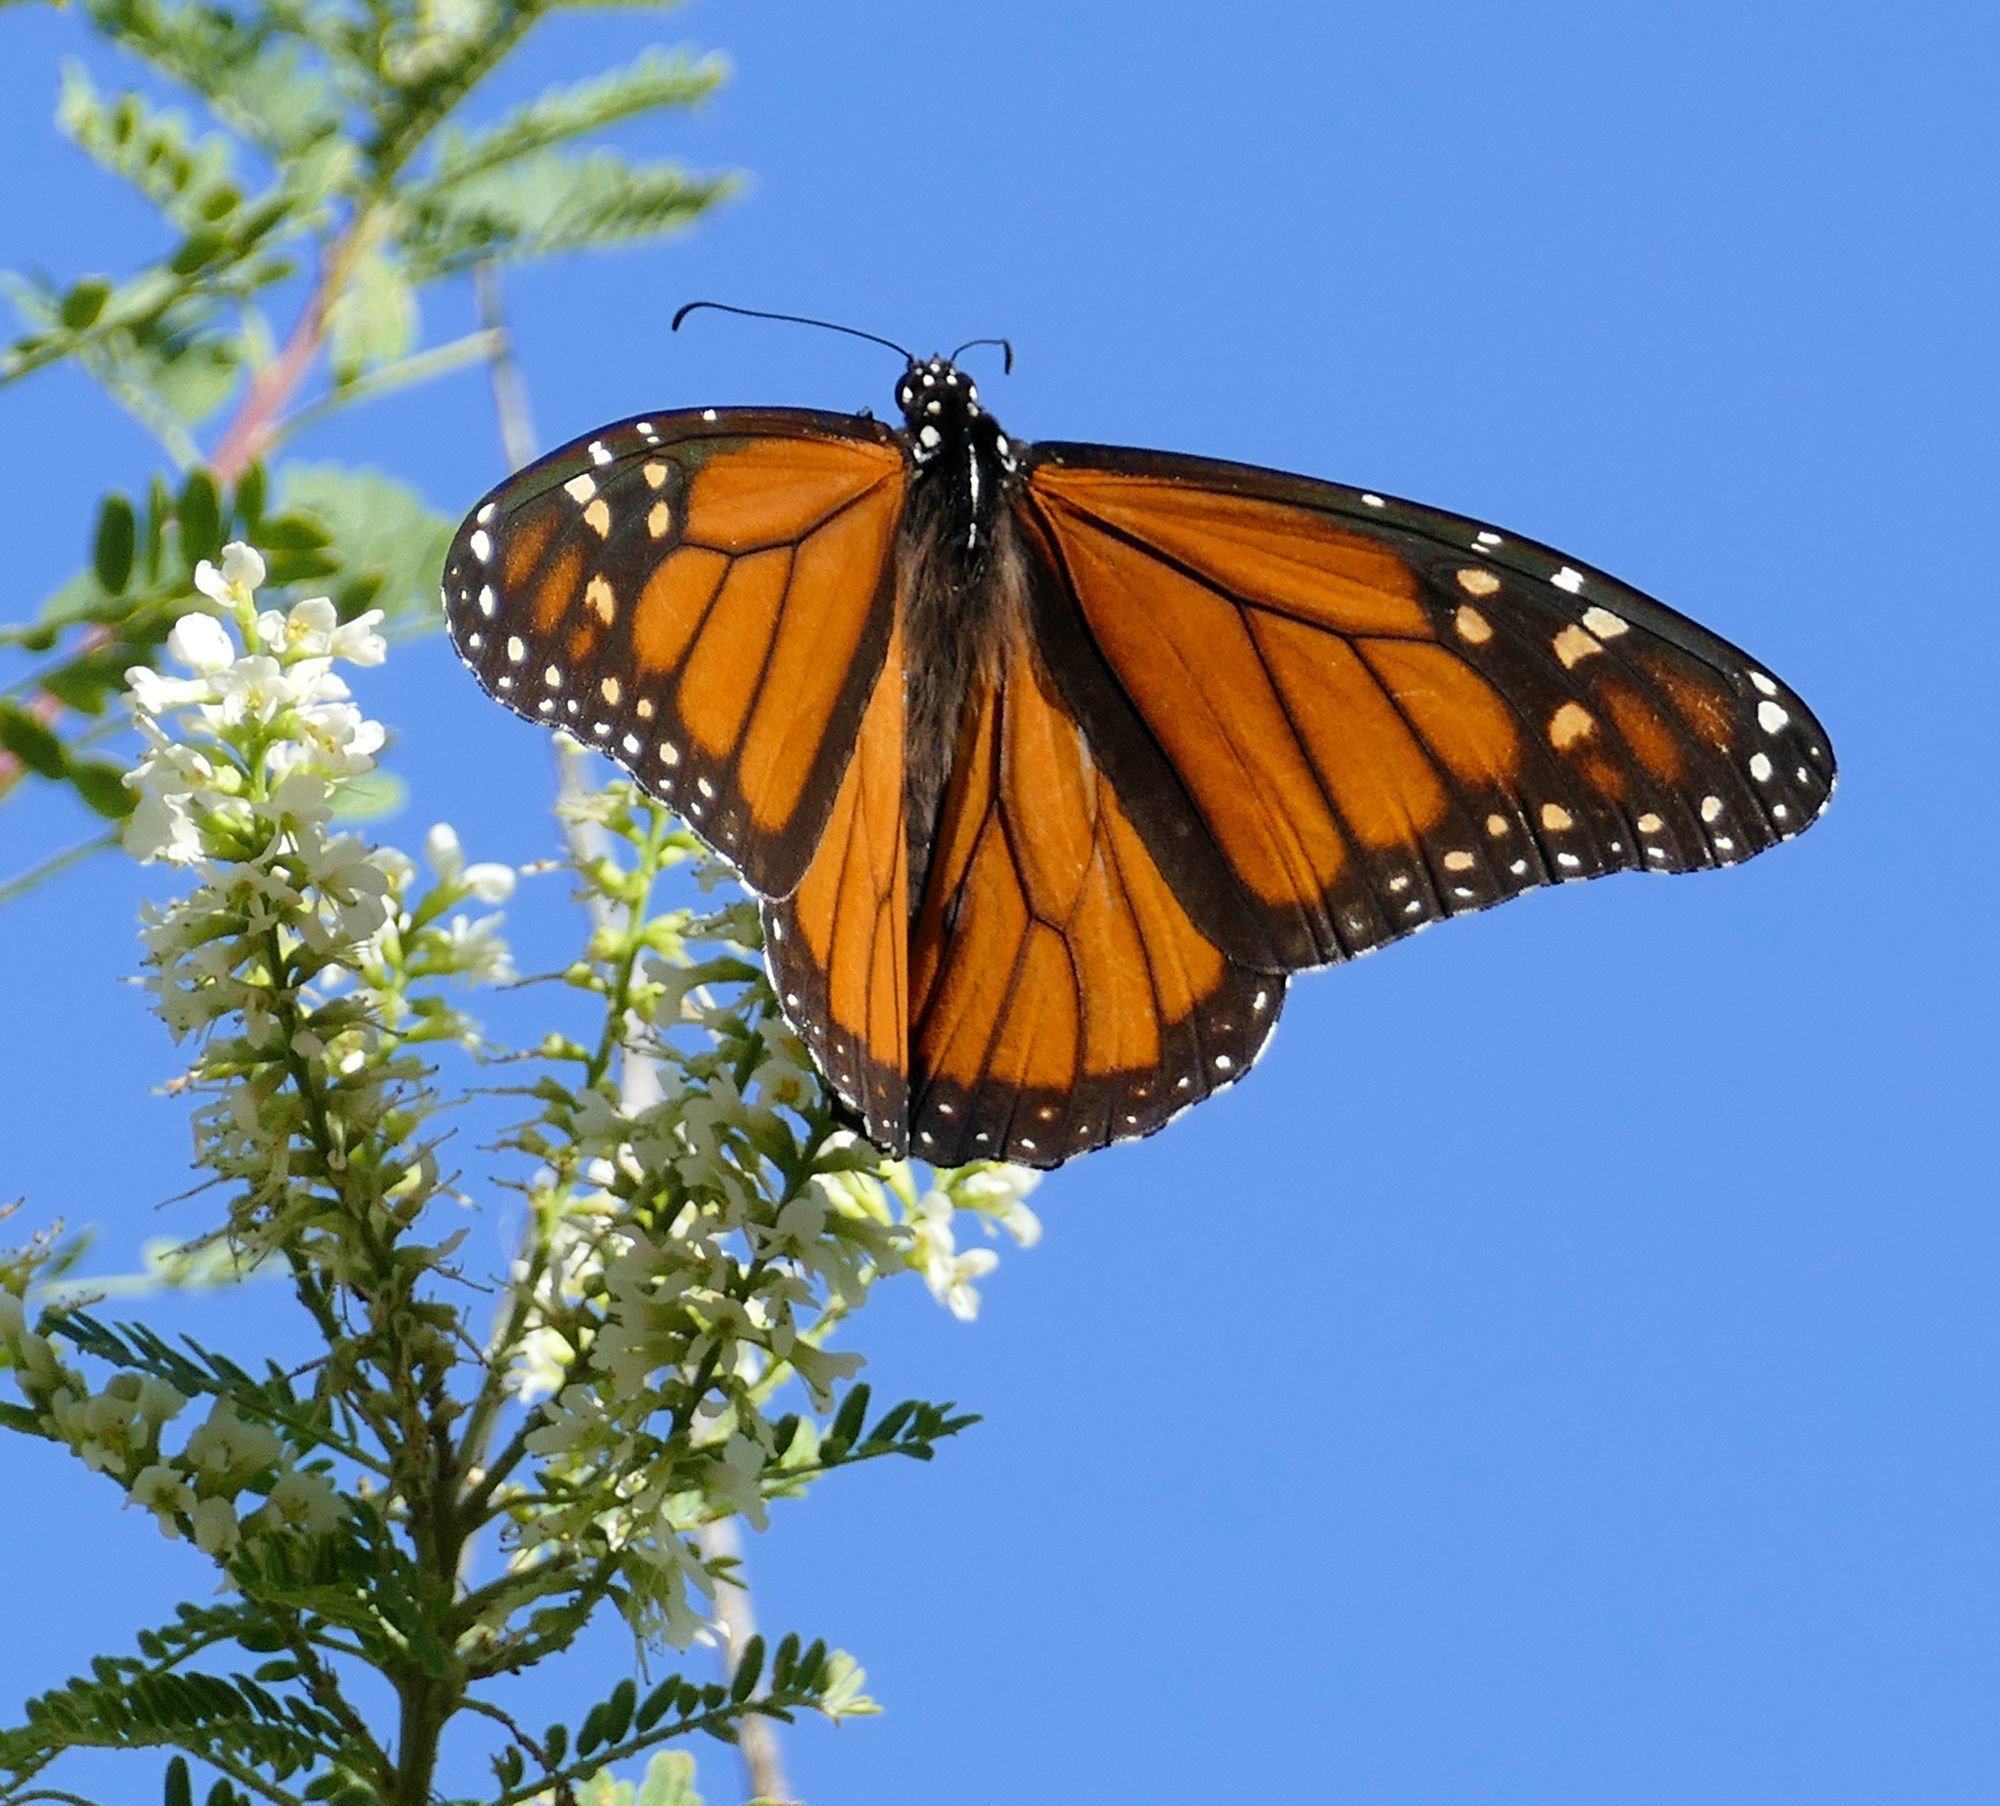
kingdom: Animalia
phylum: Arthropoda
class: Insecta
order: Lepidoptera
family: Nymphalidae
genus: Danaus
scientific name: Danaus plexippus
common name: Monarch
